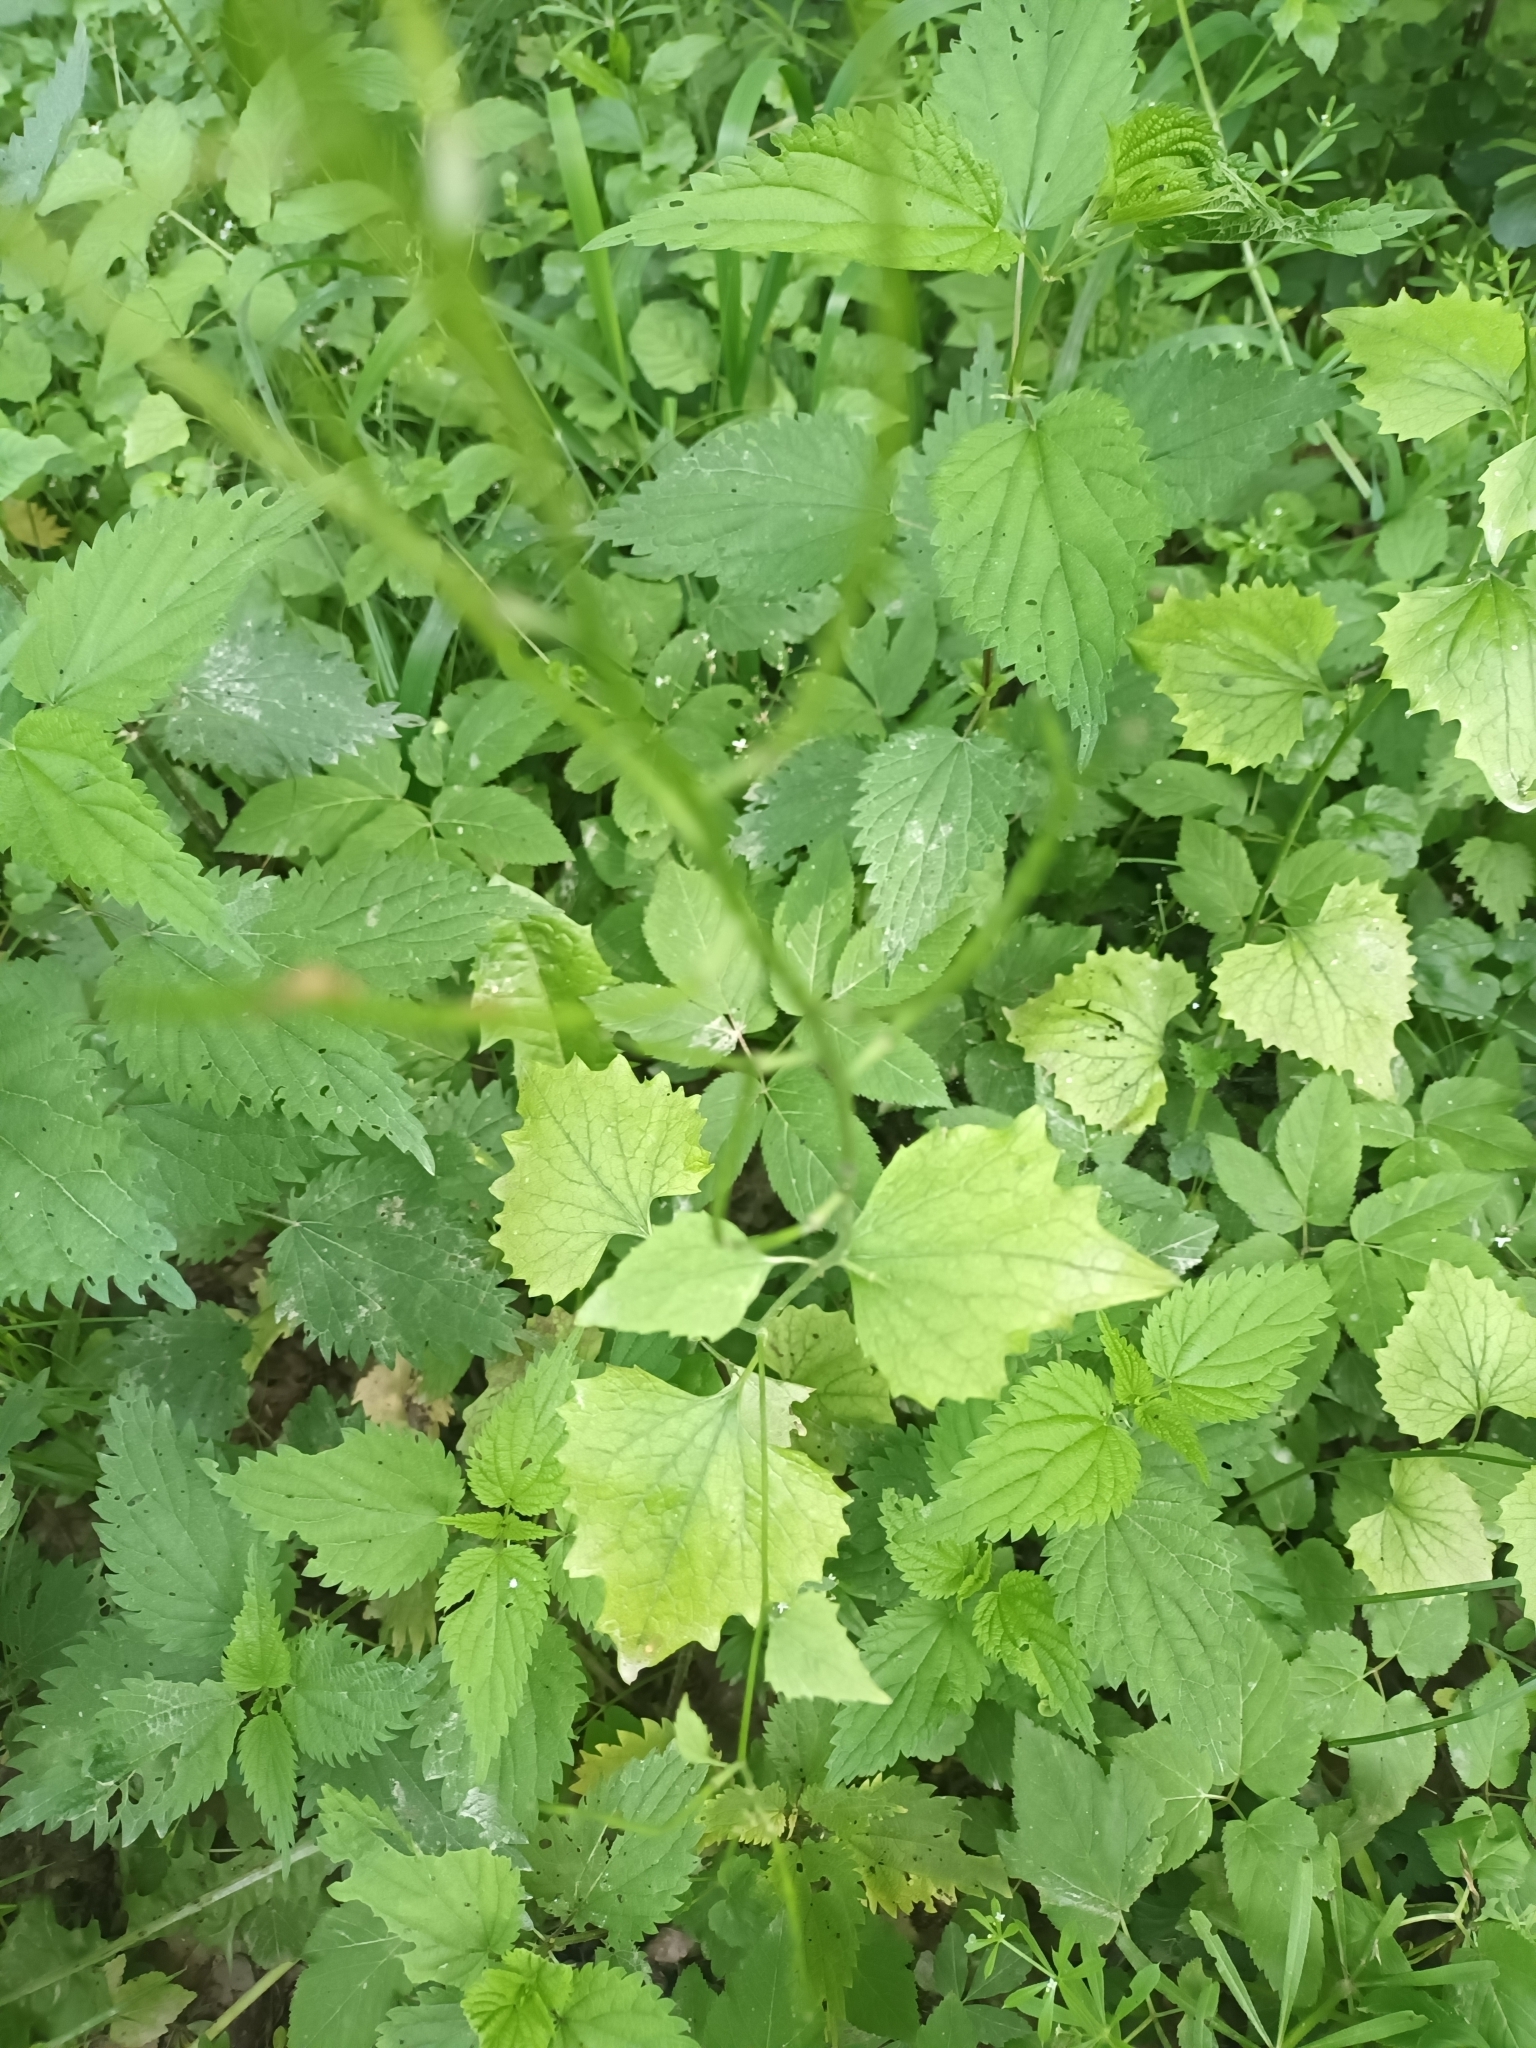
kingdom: Plantae
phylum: Tracheophyta
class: Magnoliopsida
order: Brassicales
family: Brassicaceae
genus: Alliaria
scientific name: Alliaria petiolata
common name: Garlic mustard
